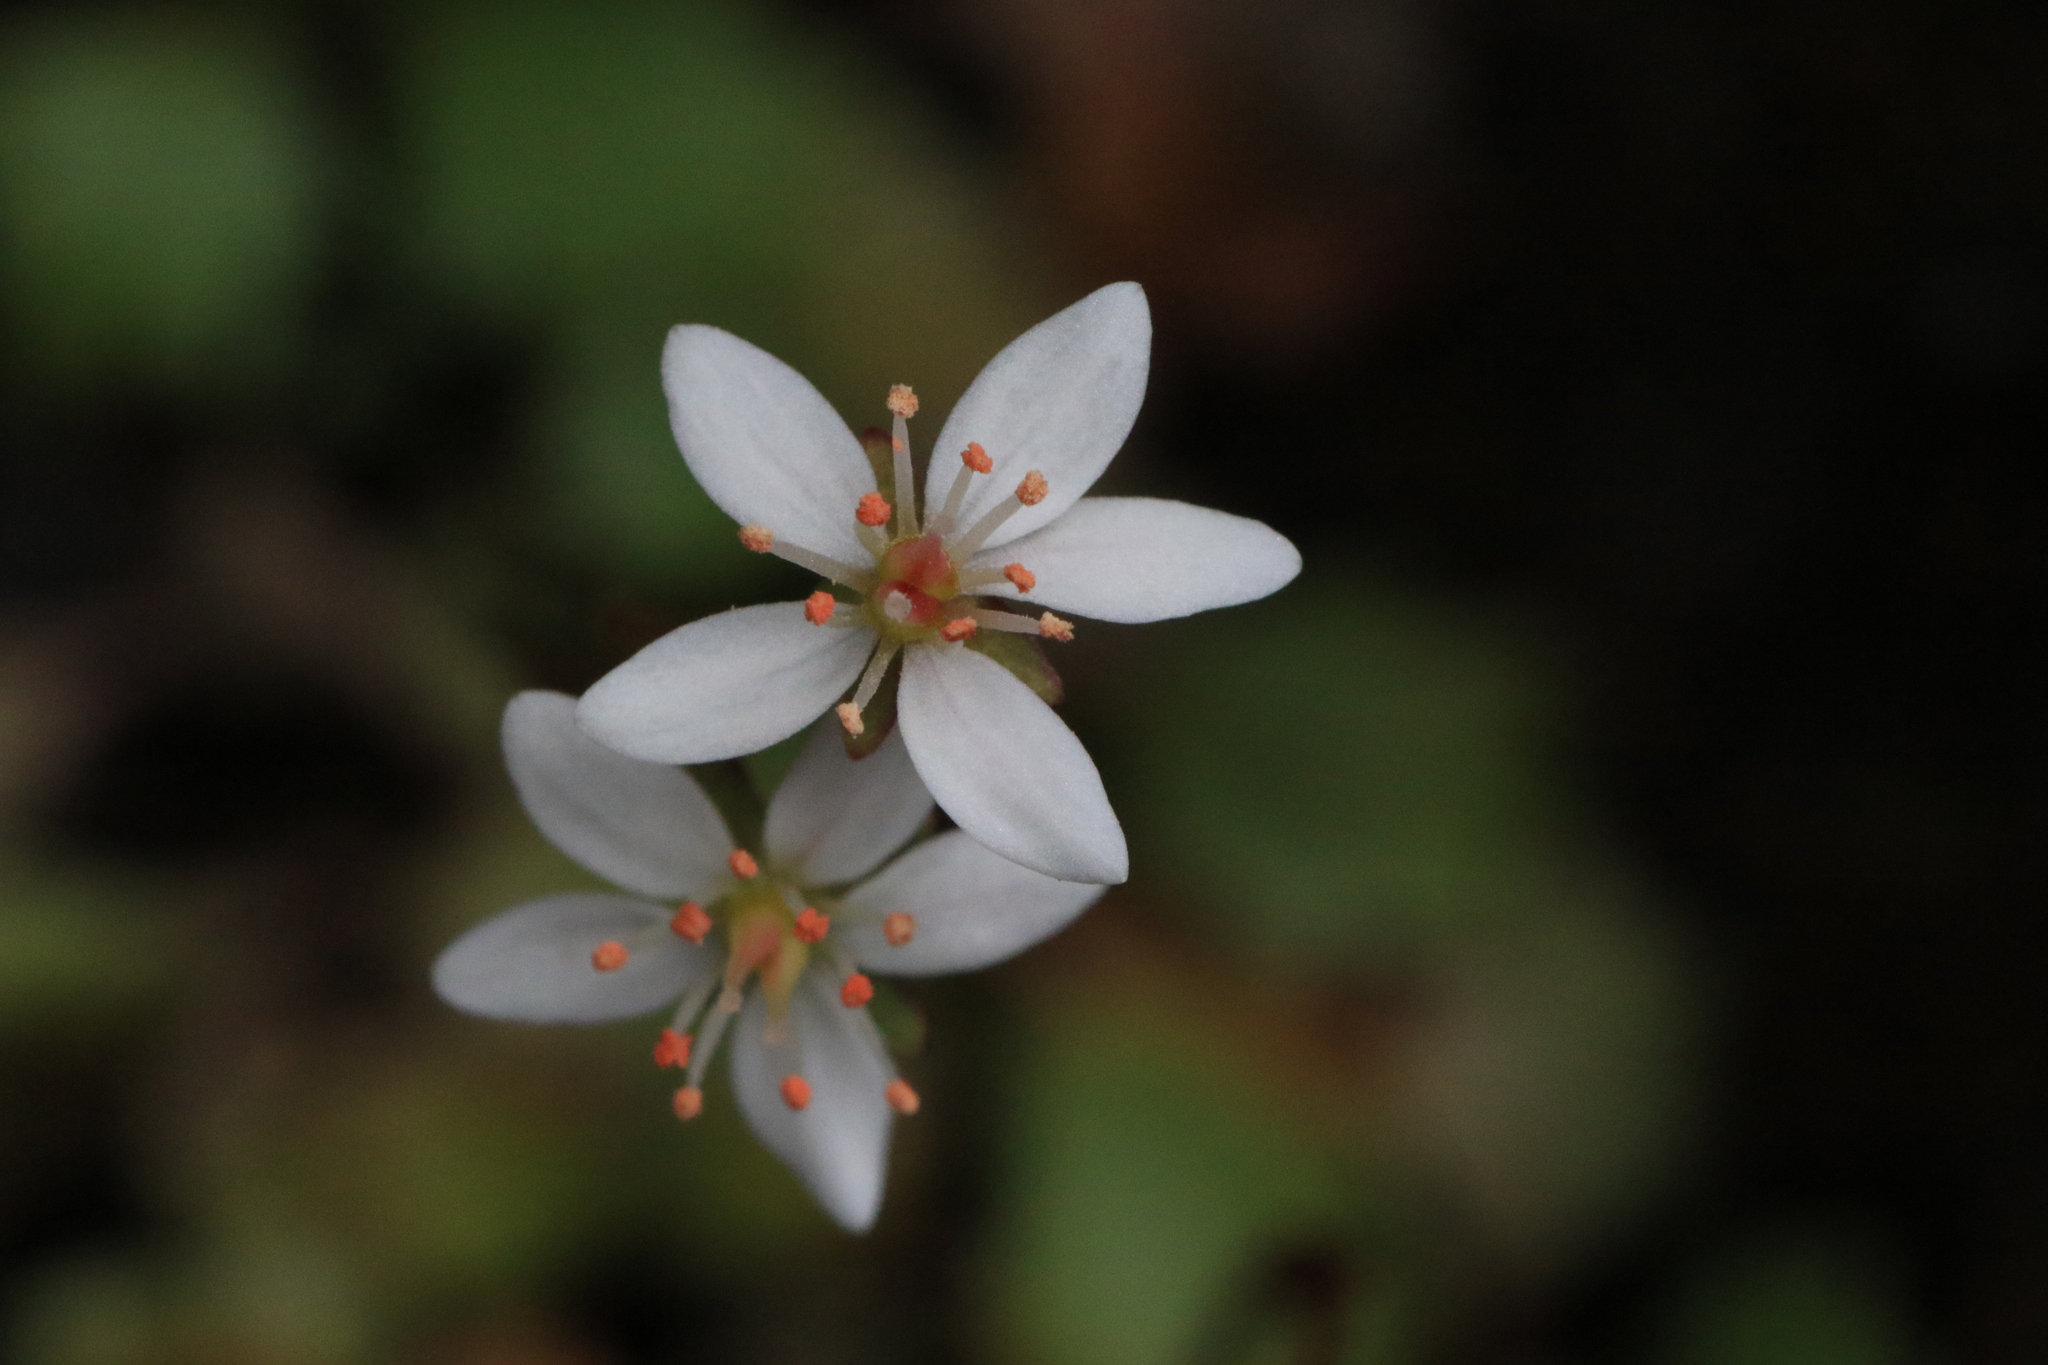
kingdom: Plantae
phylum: Tracheophyta
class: Magnoliopsida
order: Saxifragales
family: Saxifragaceae
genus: Micranthes
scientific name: Micranthes howellii
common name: Howell's saxifrage
